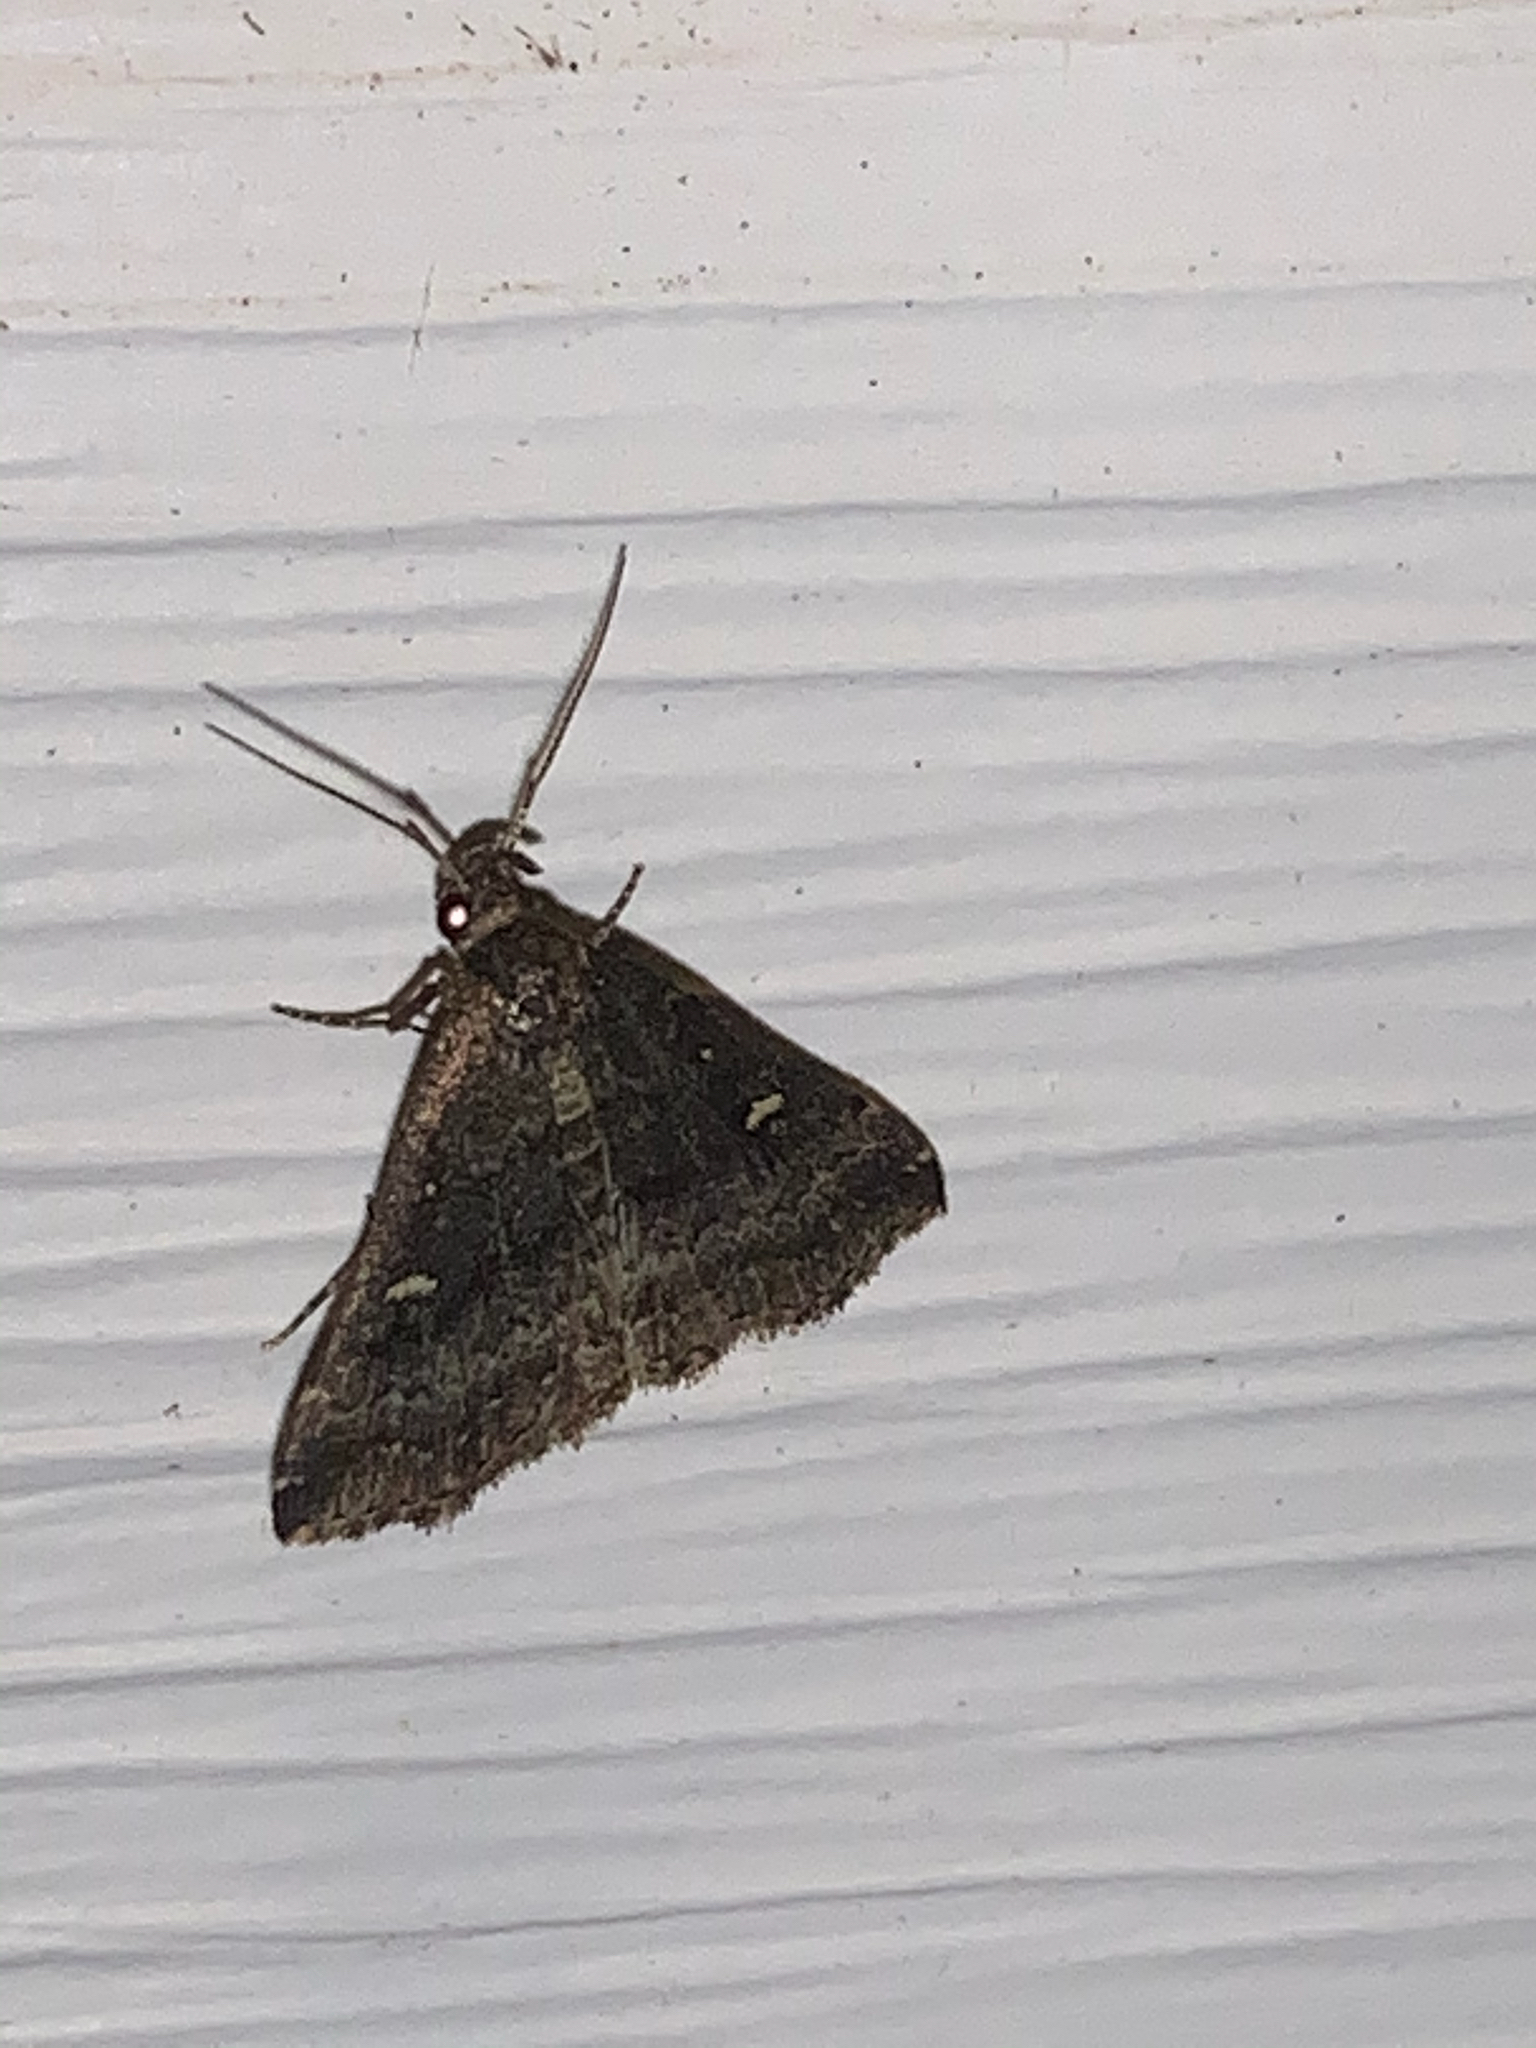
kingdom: Animalia
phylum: Arthropoda
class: Insecta
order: Lepidoptera
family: Erebidae
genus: Tetanolita
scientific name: Tetanolita mynesalis
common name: Smoky tetanolita moth
